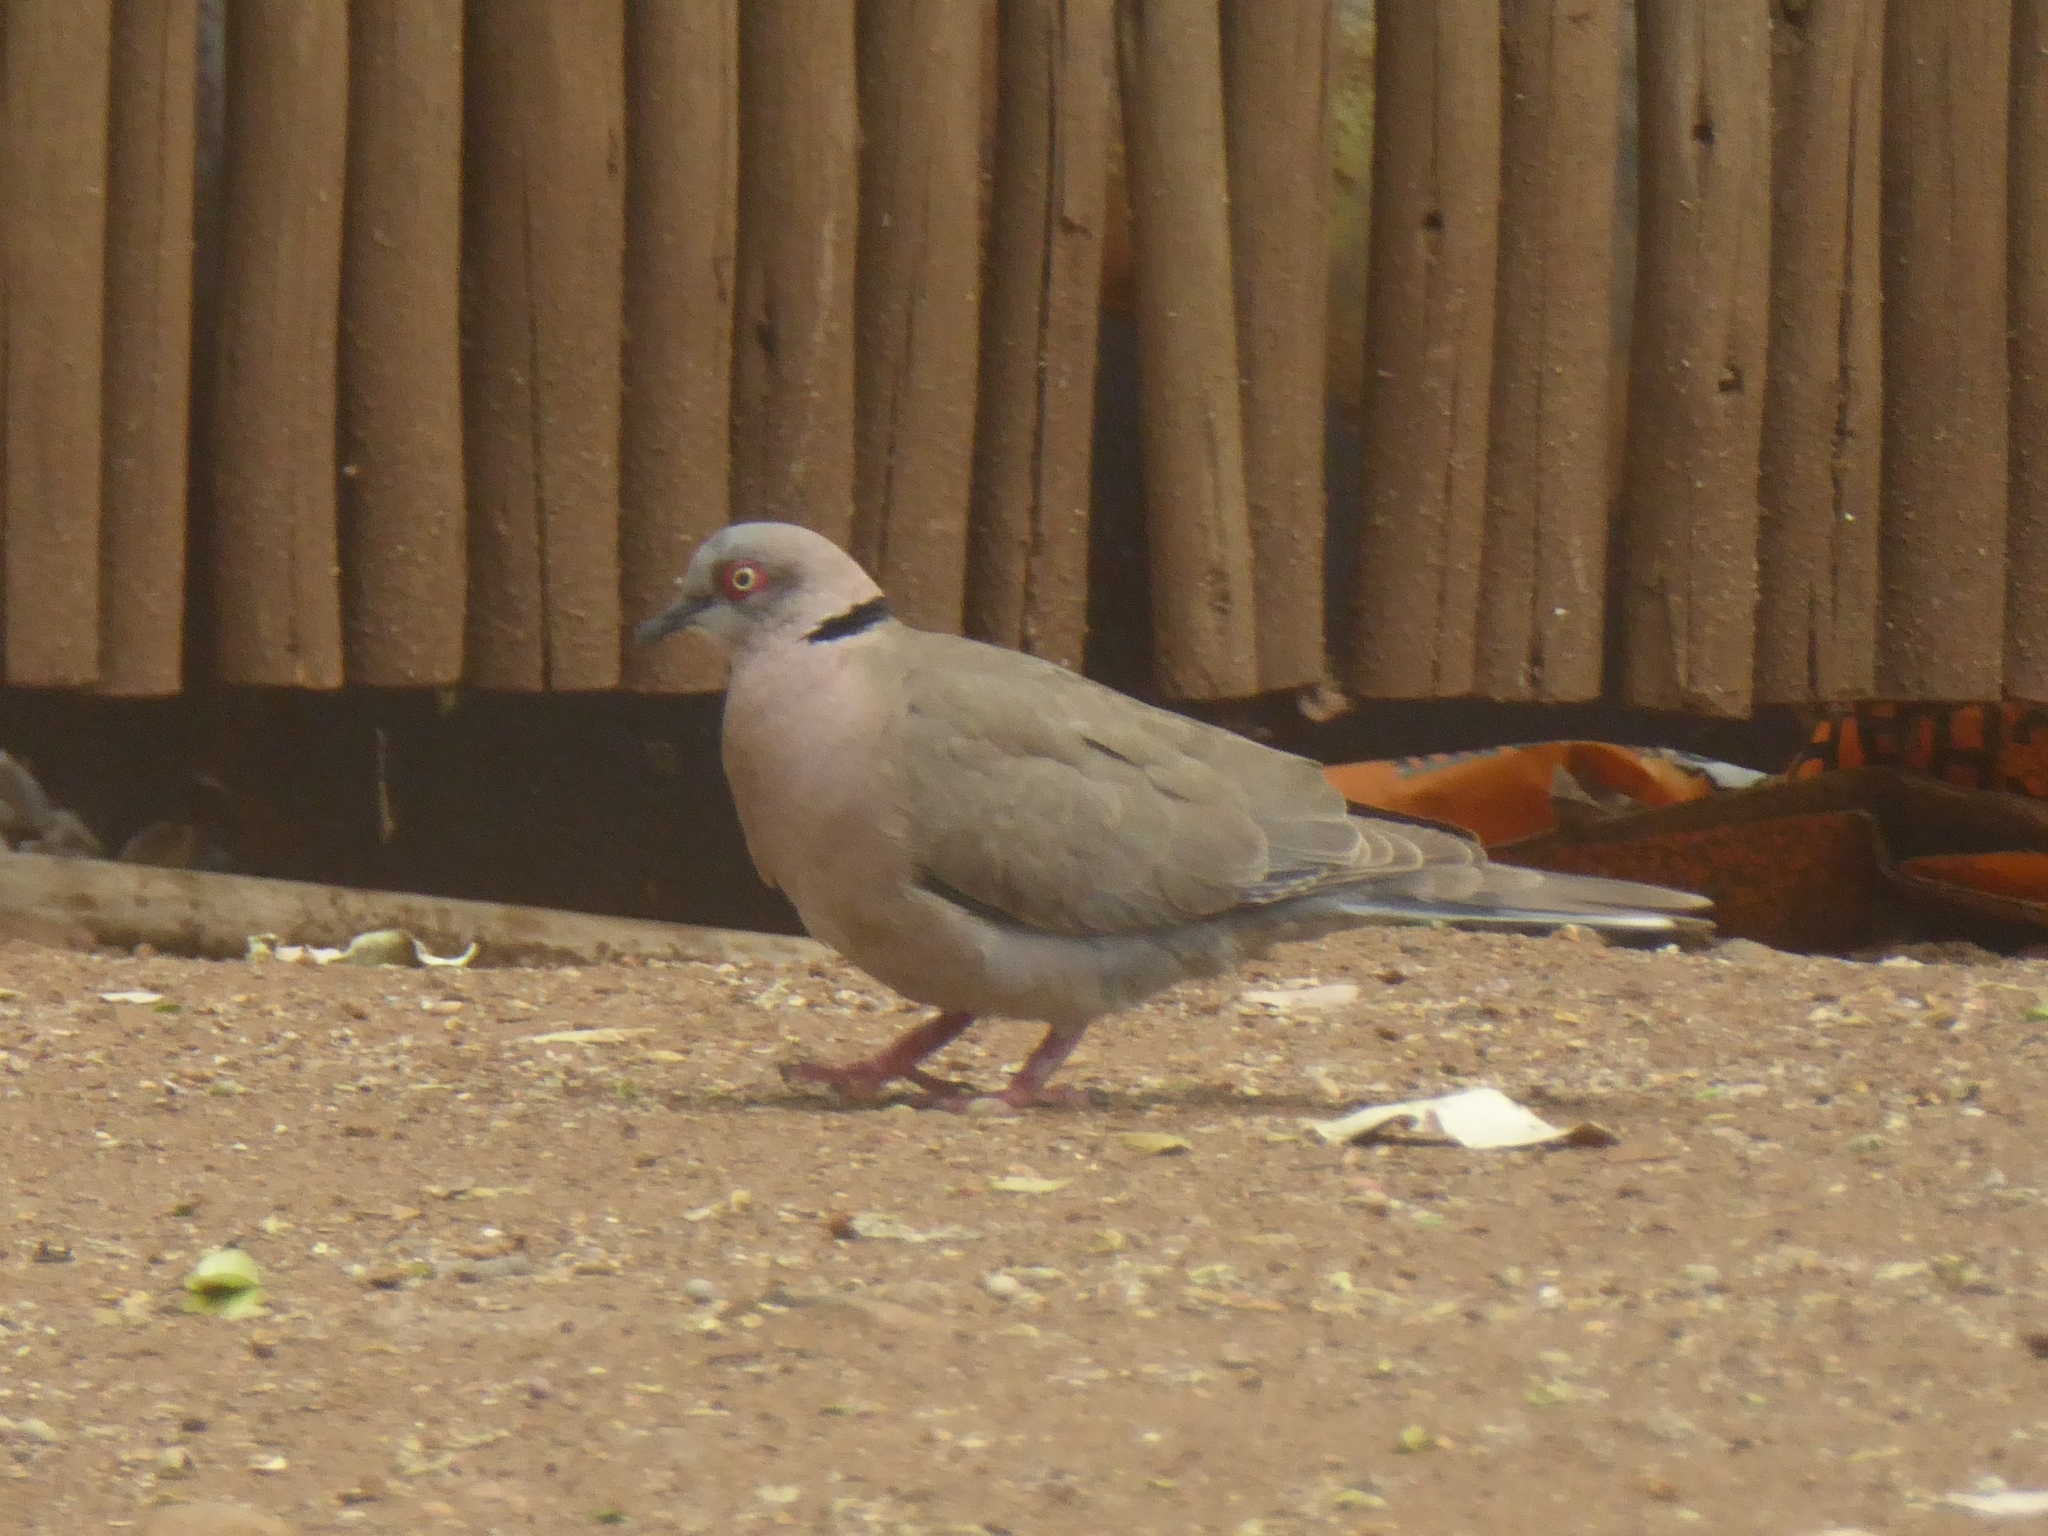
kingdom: Animalia
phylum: Chordata
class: Aves
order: Columbiformes
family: Columbidae
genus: Streptopelia
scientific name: Streptopelia decipiens
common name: Mourning collared dove
